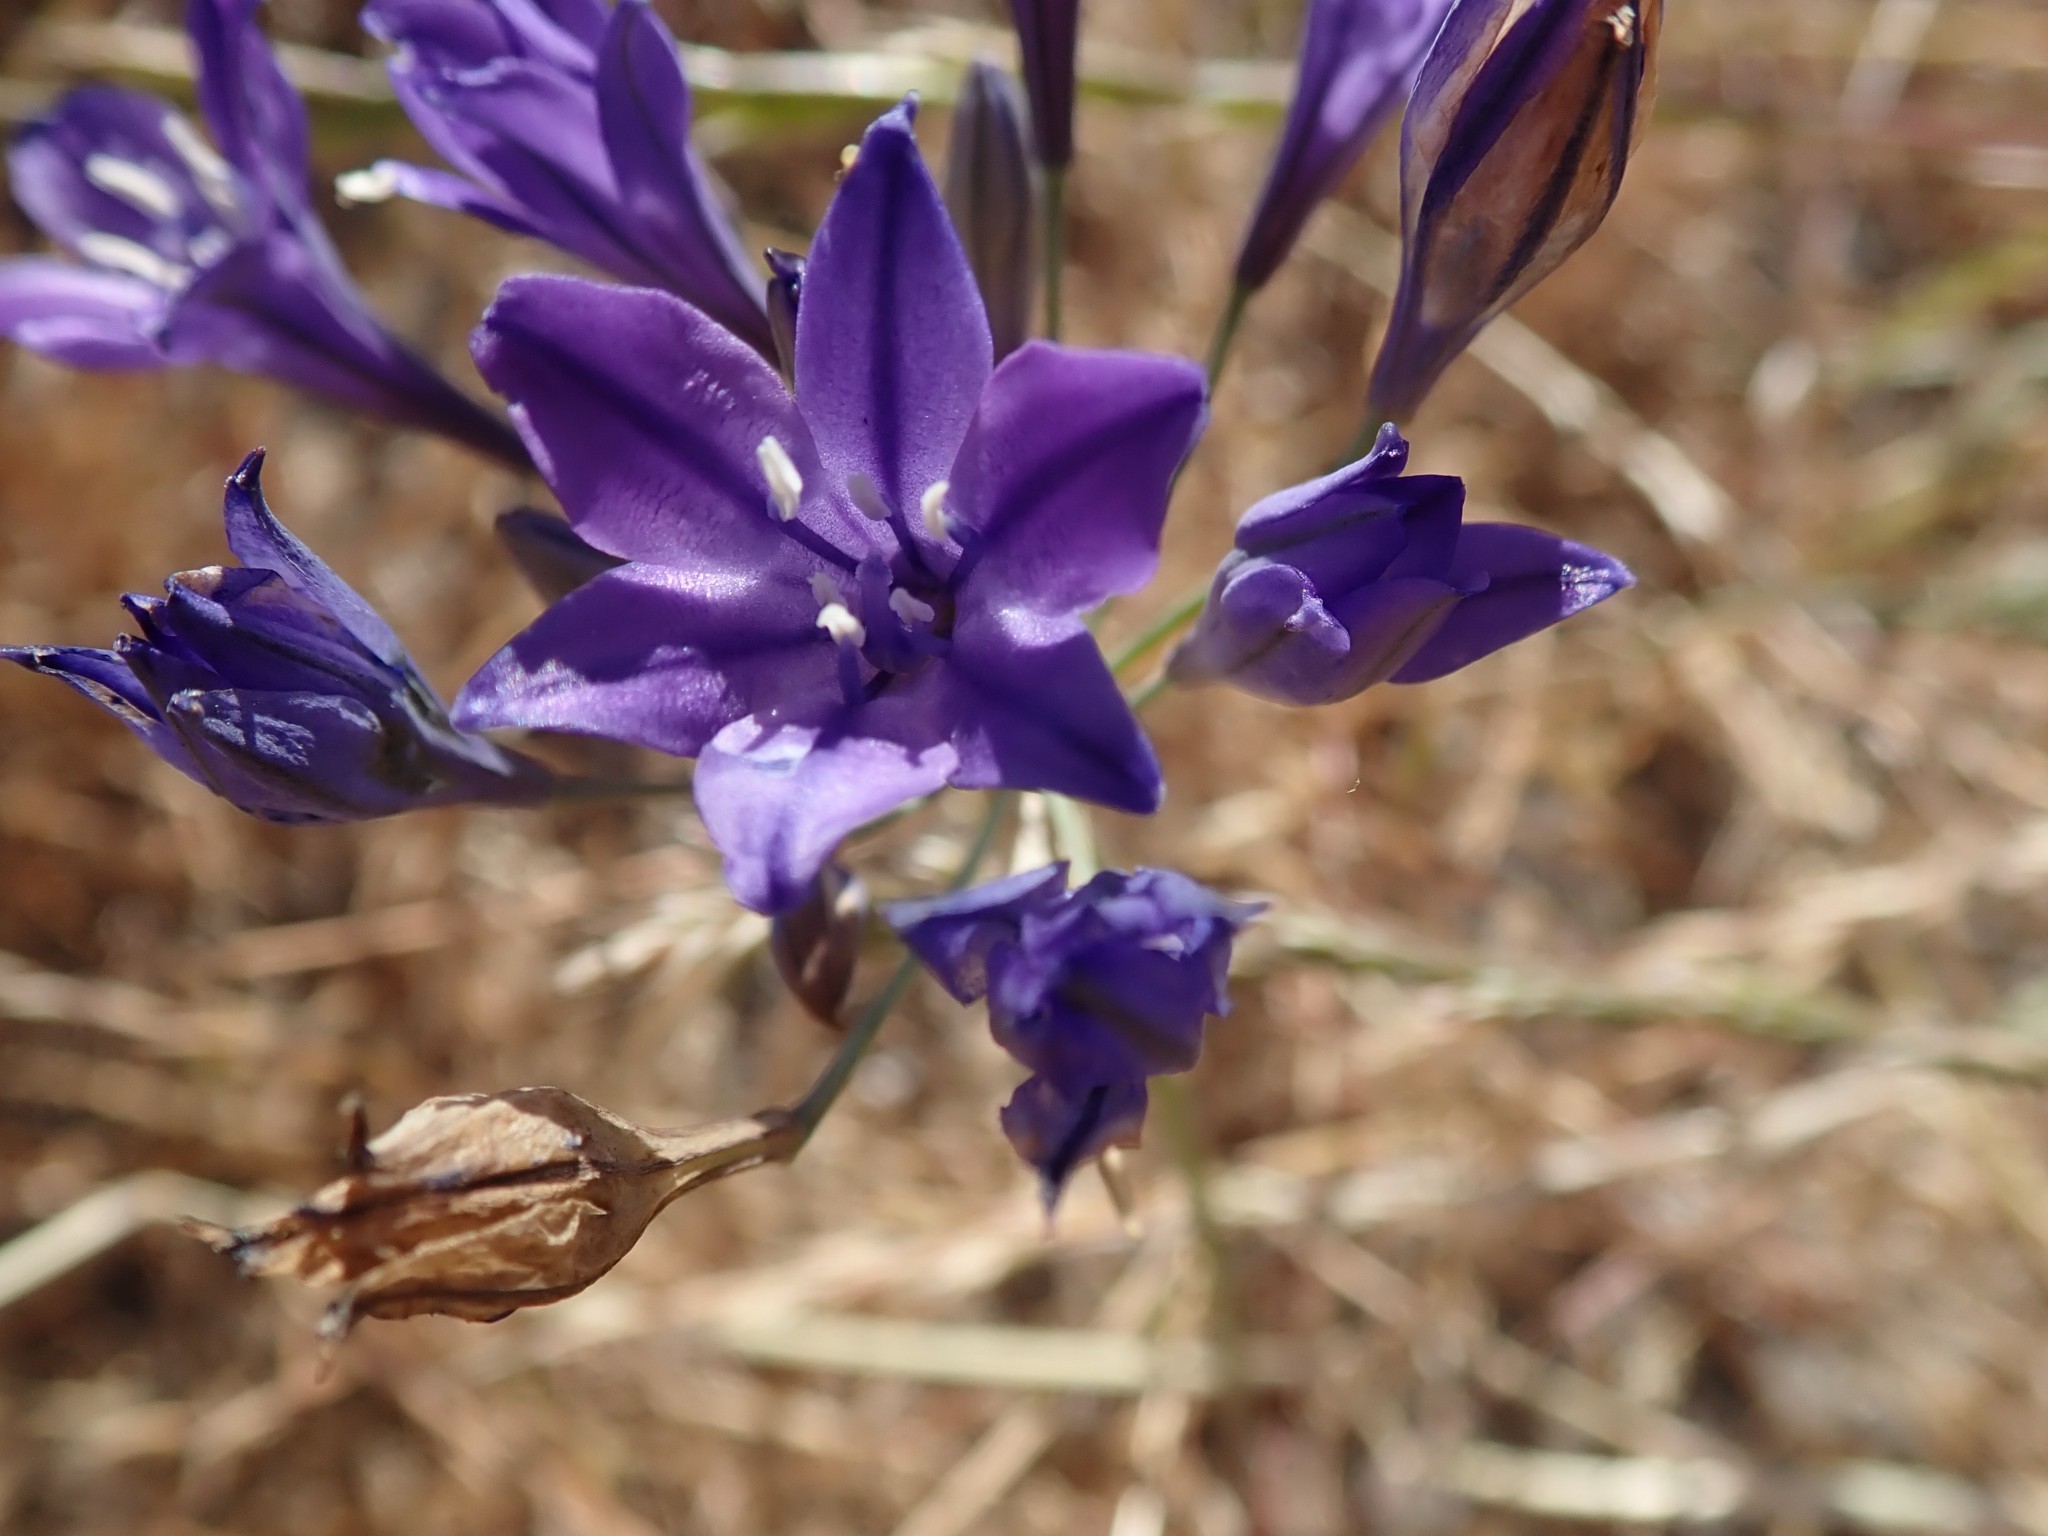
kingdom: Plantae
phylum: Tracheophyta
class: Liliopsida
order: Asparagales
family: Asparagaceae
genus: Triteleia
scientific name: Triteleia laxa
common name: Triplet-lily
